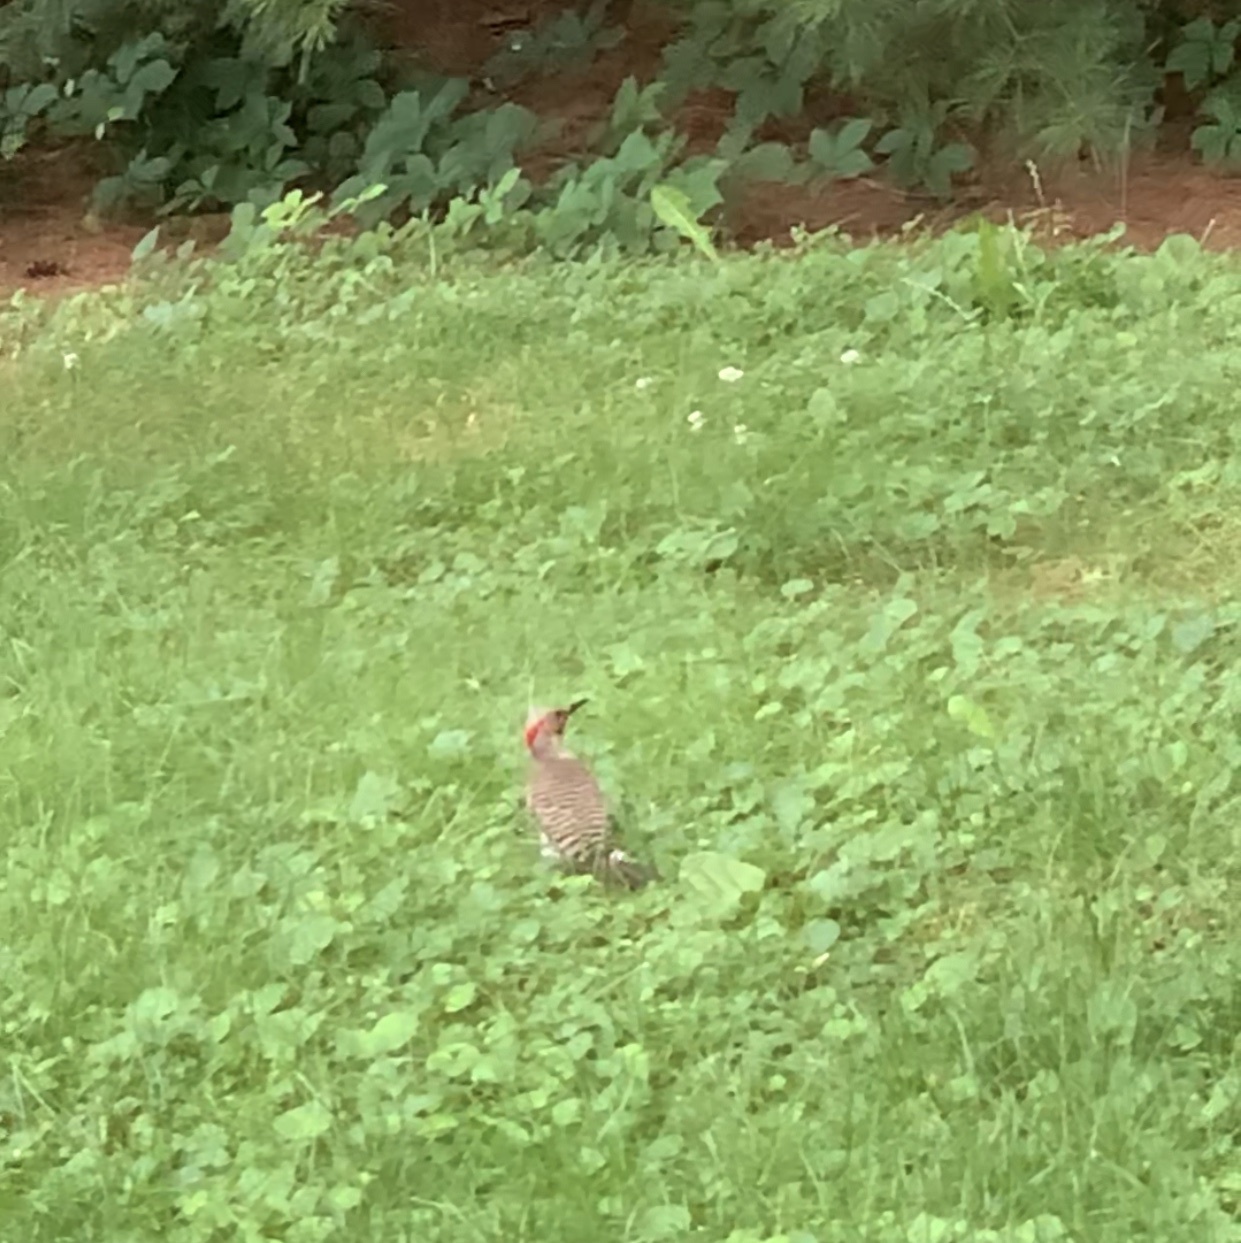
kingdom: Animalia
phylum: Chordata
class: Aves
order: Piciformes
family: Picidae
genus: Colaptes
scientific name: Colaptes auratus
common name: Northern flicker
